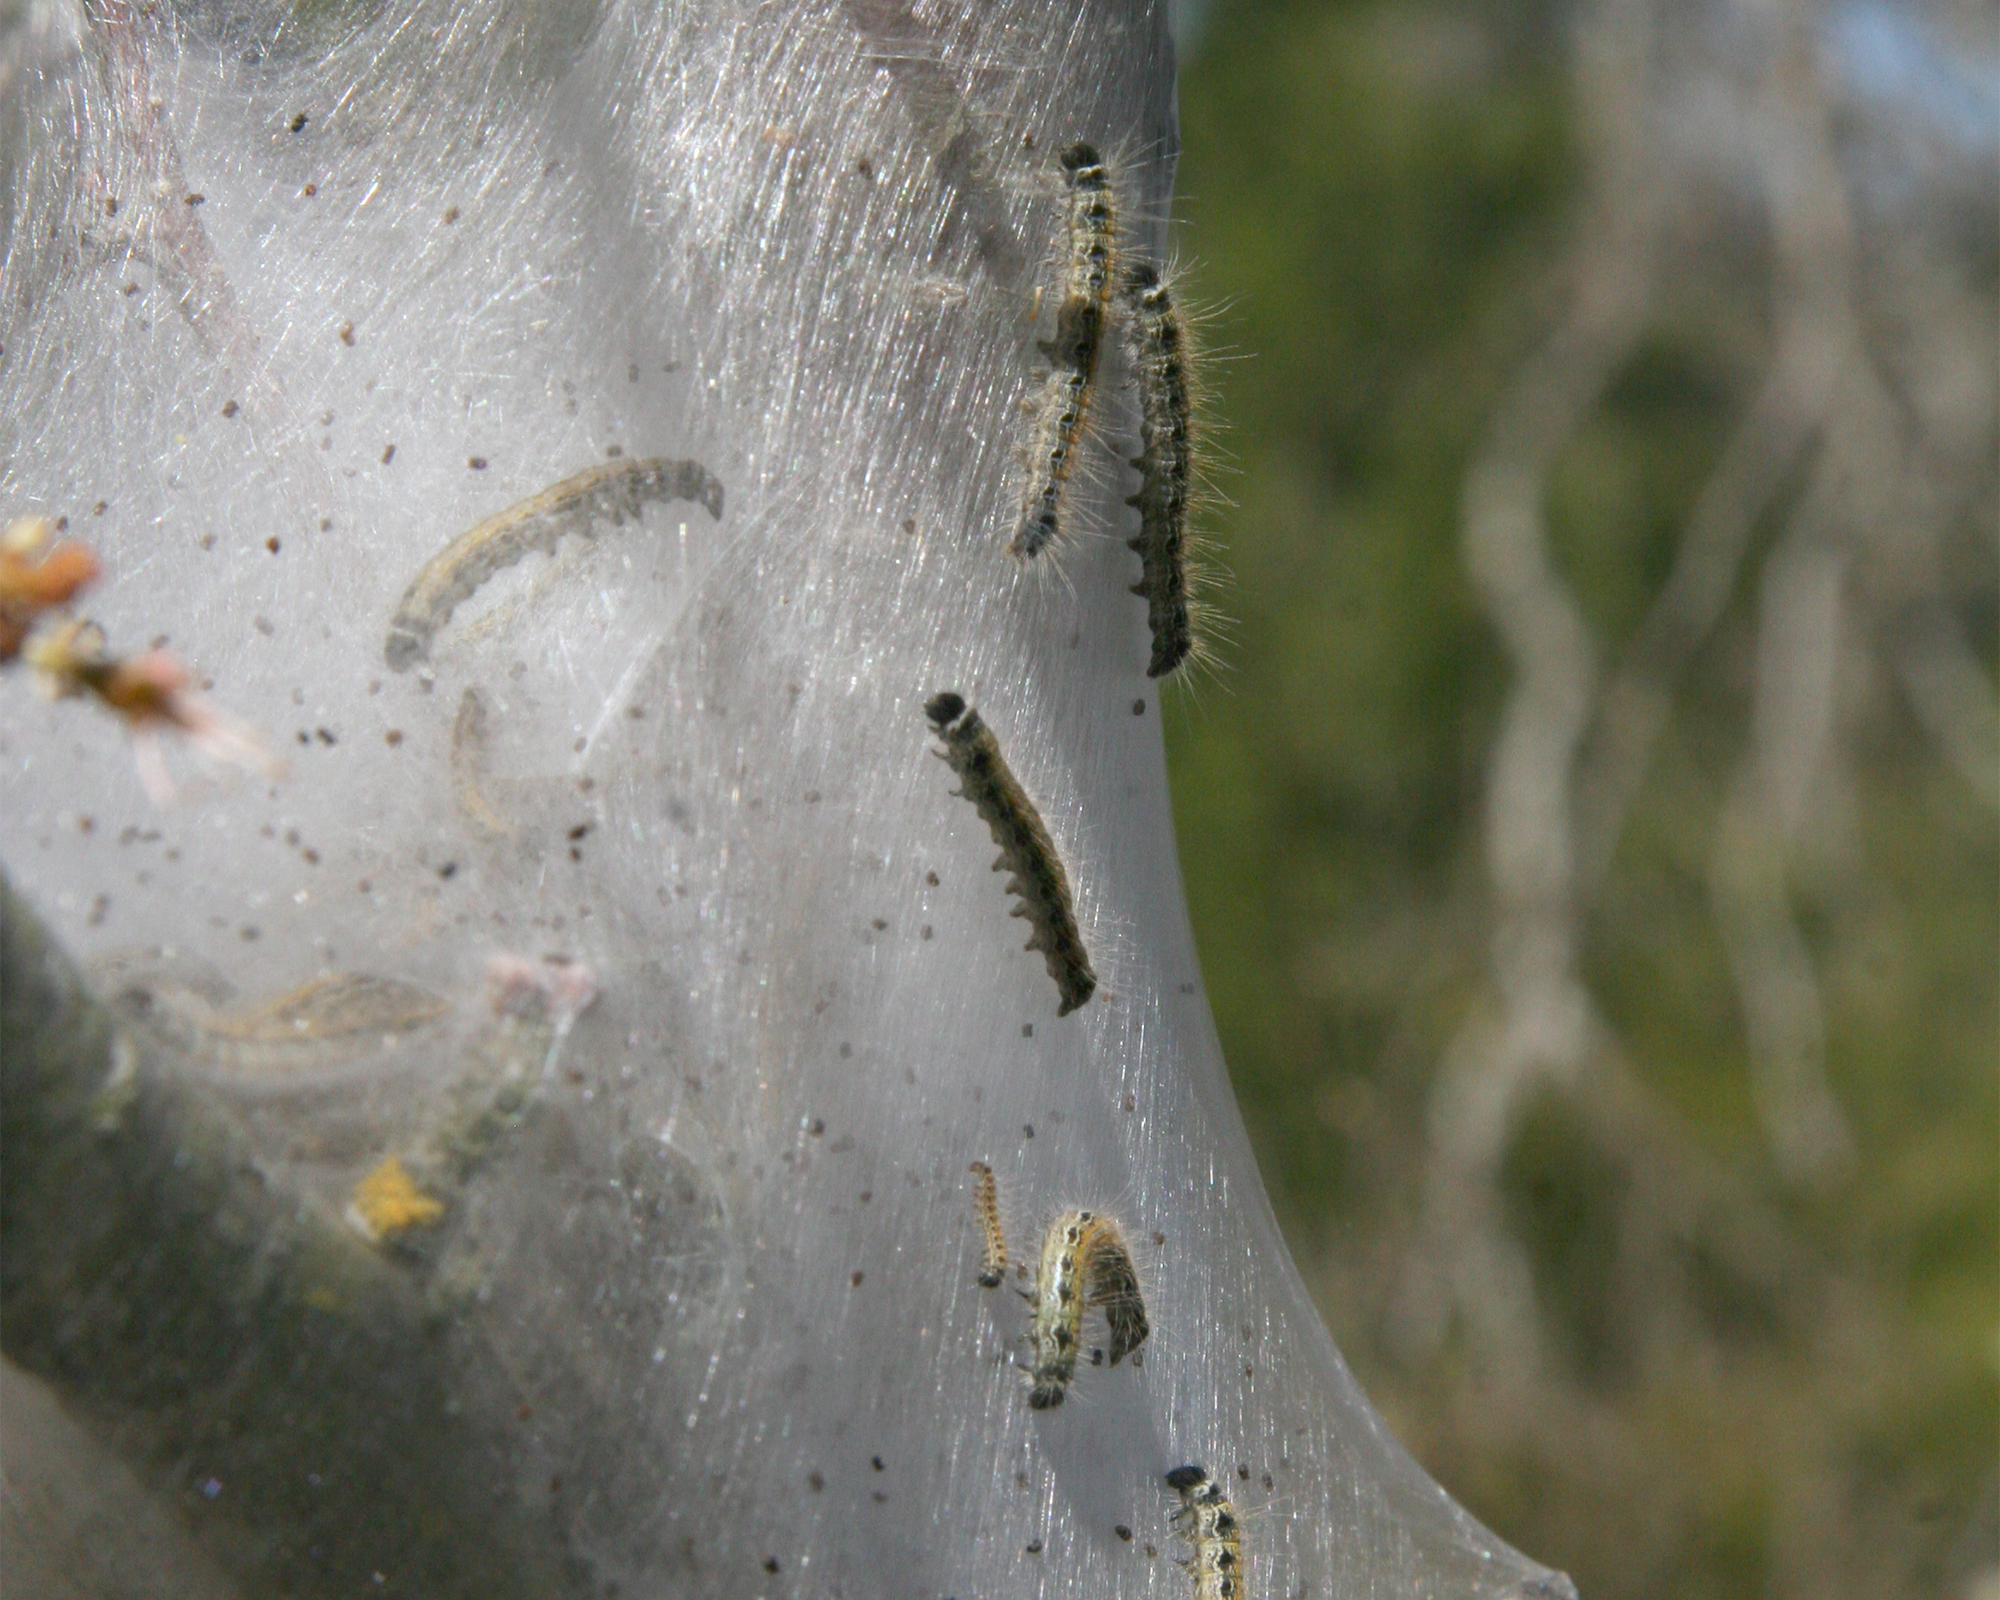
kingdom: Animalia
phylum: Arthropoda
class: Insecta
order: Lepidoptera
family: Lasiocampidae
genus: Malacosoma
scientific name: Malacosoma americana
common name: Eastern tent caterpillar moth
